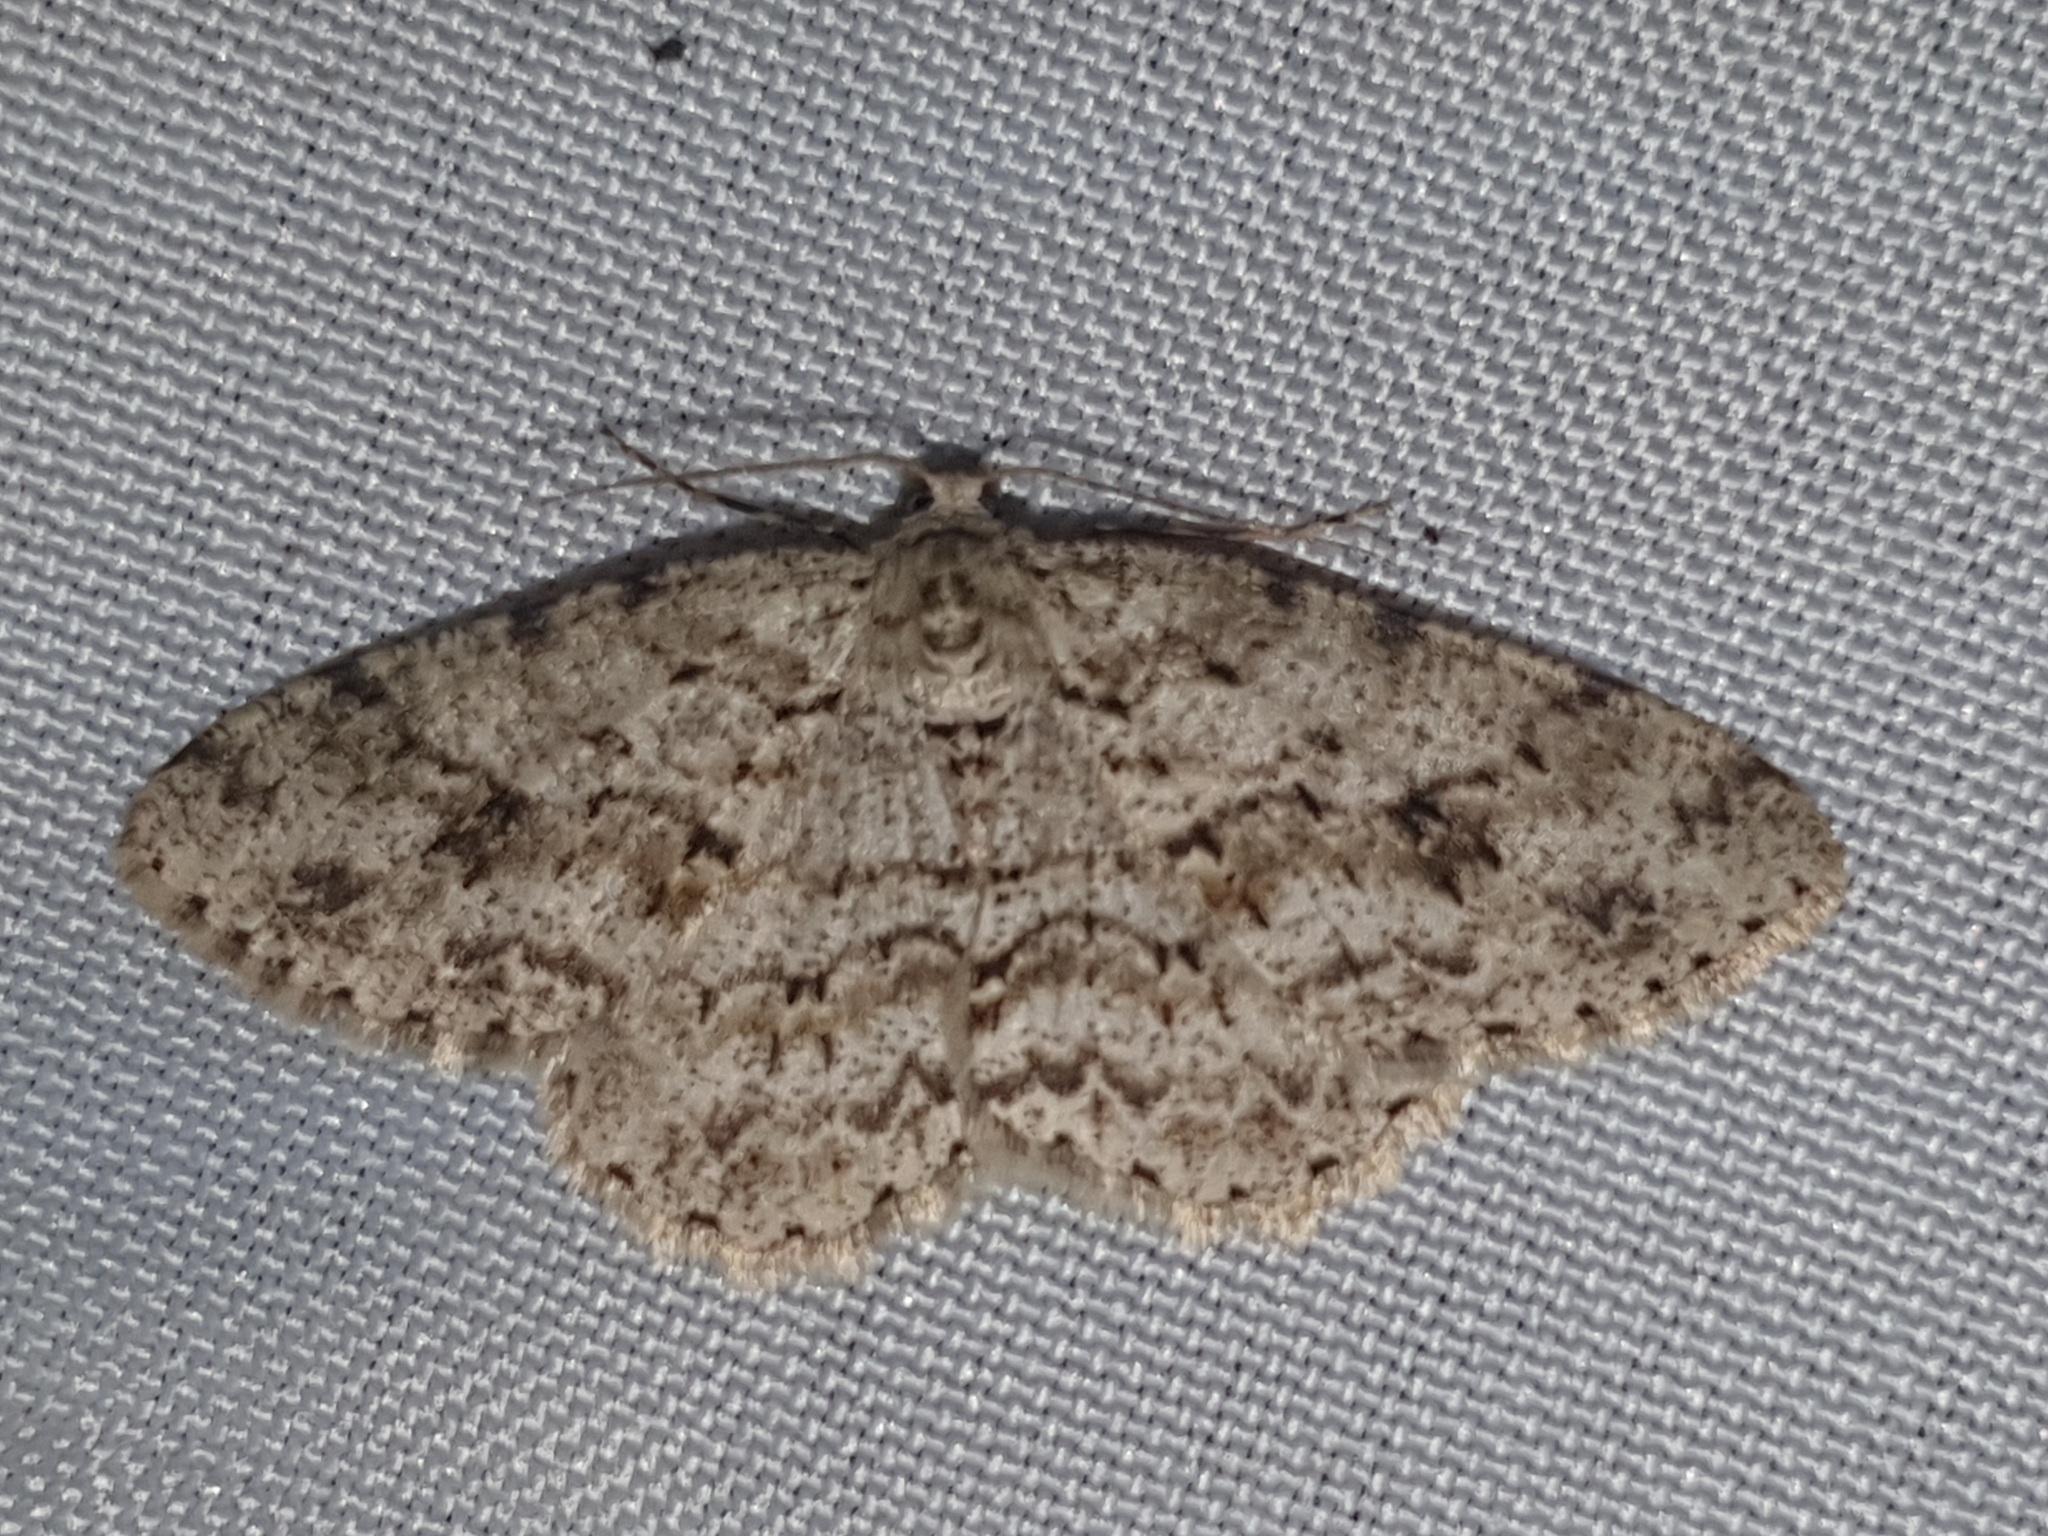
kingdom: Animalia
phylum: Arthropoda
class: Insecta
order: Lepidoptera
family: Geometridae
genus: Ectropis
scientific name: Ectropis crepuscularia
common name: Engrailed
